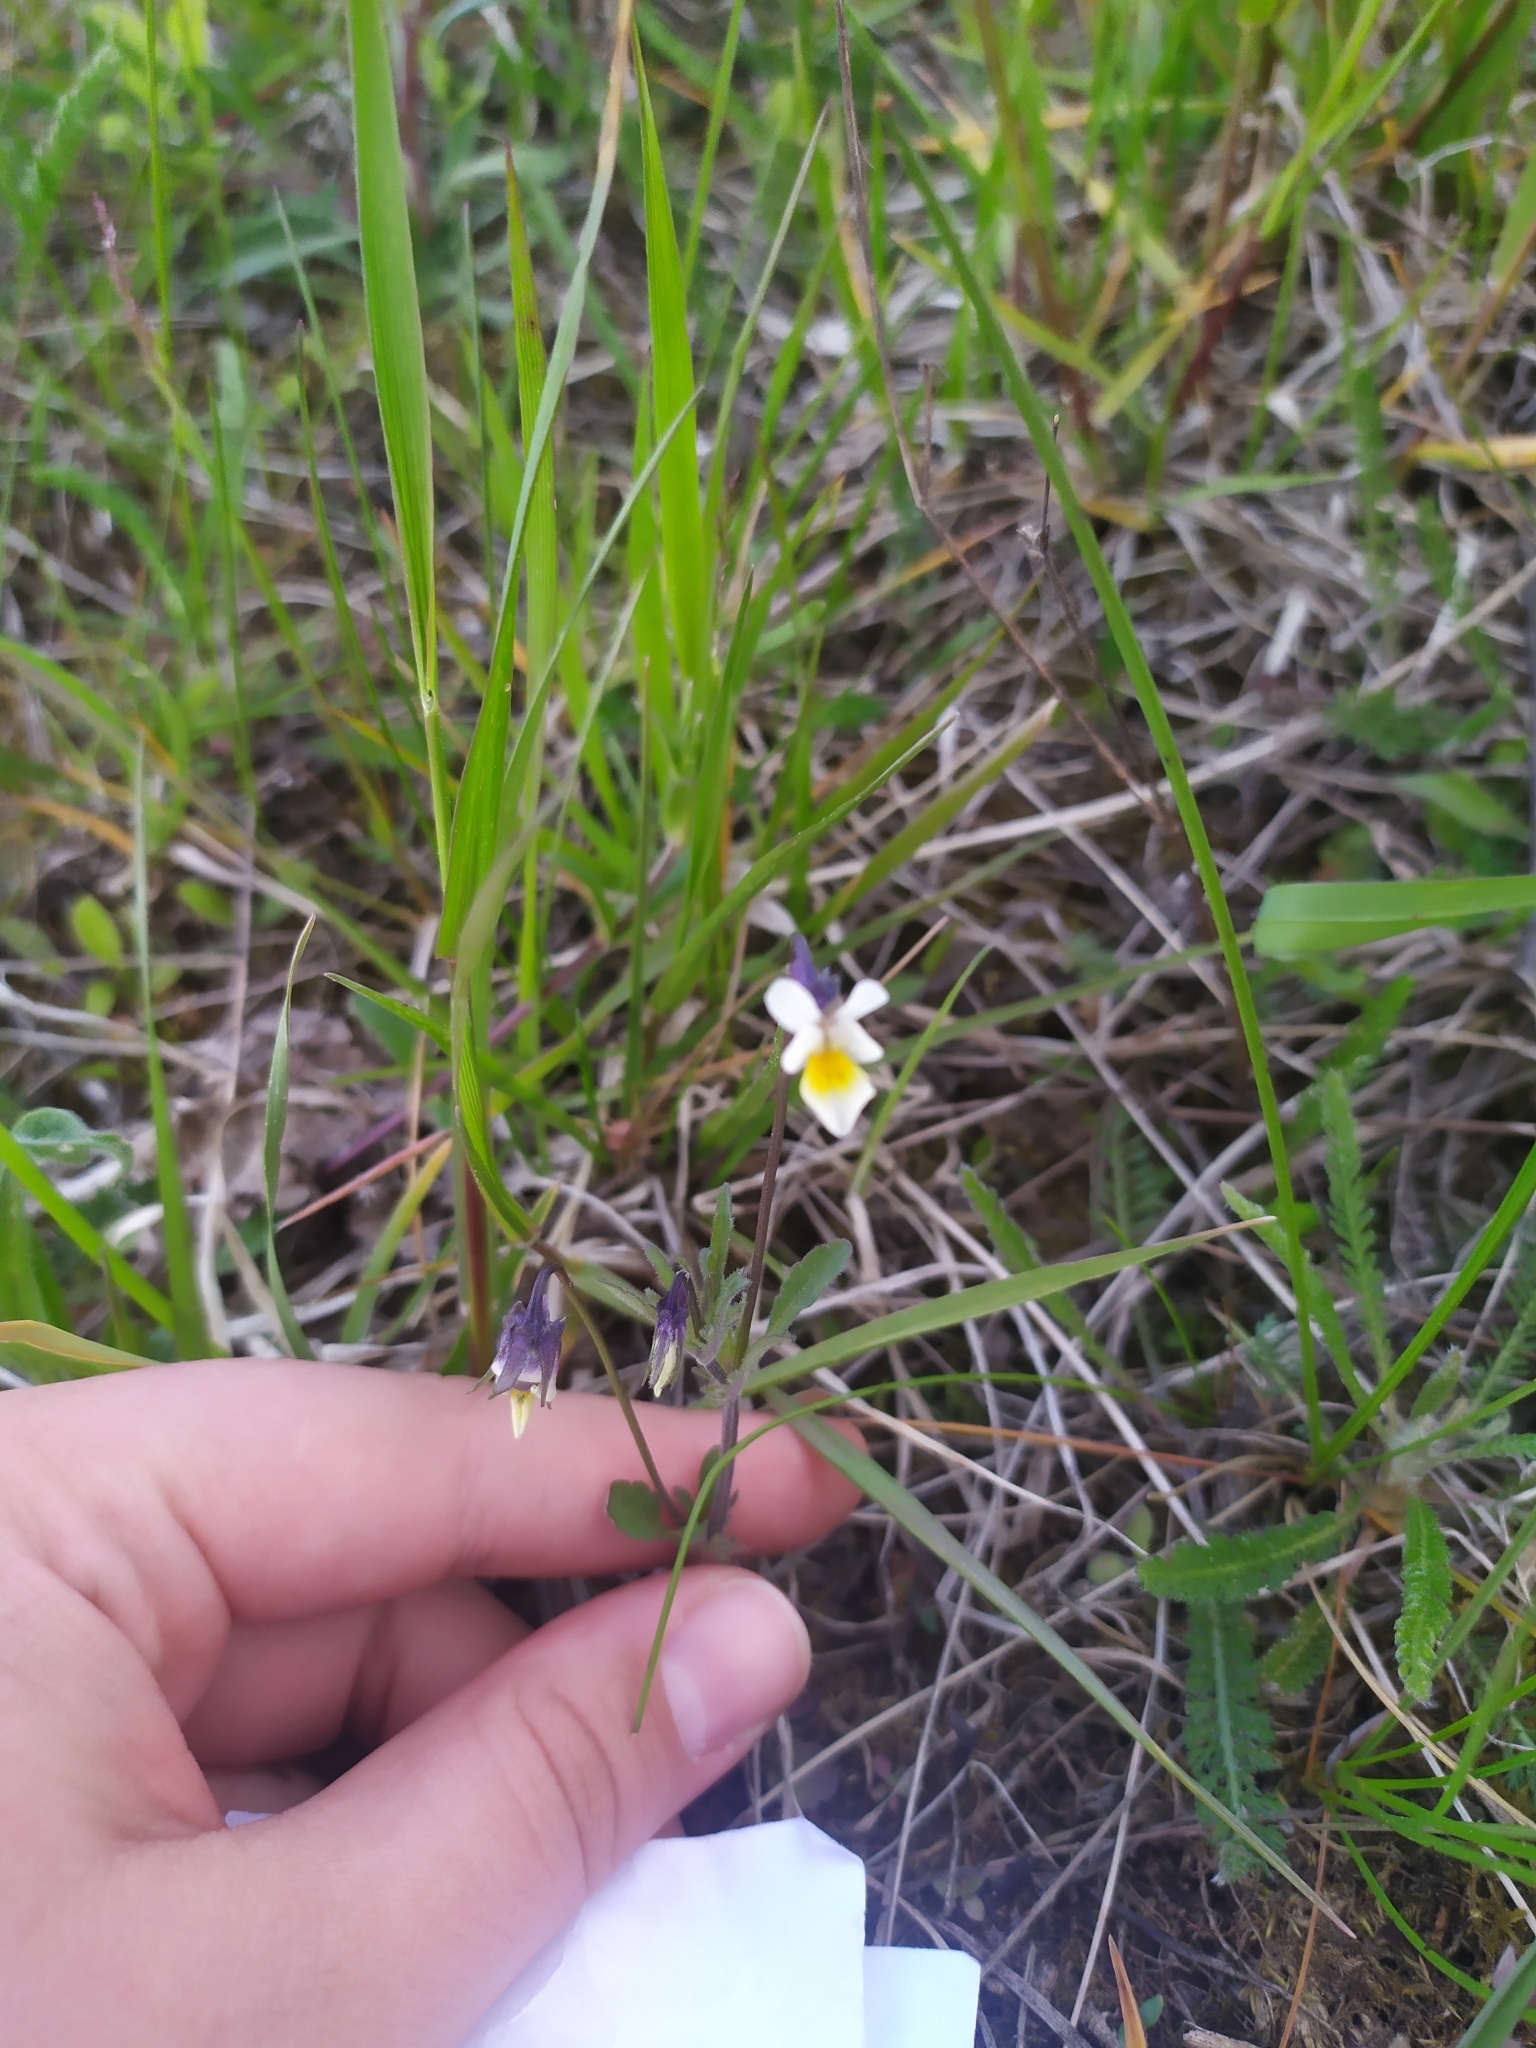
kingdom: Plantae
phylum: Tracheophyta
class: Magnoliopsida
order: Malpighiales
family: Violaceae
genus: Viola
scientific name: Viola arvensis
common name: Field pansy
